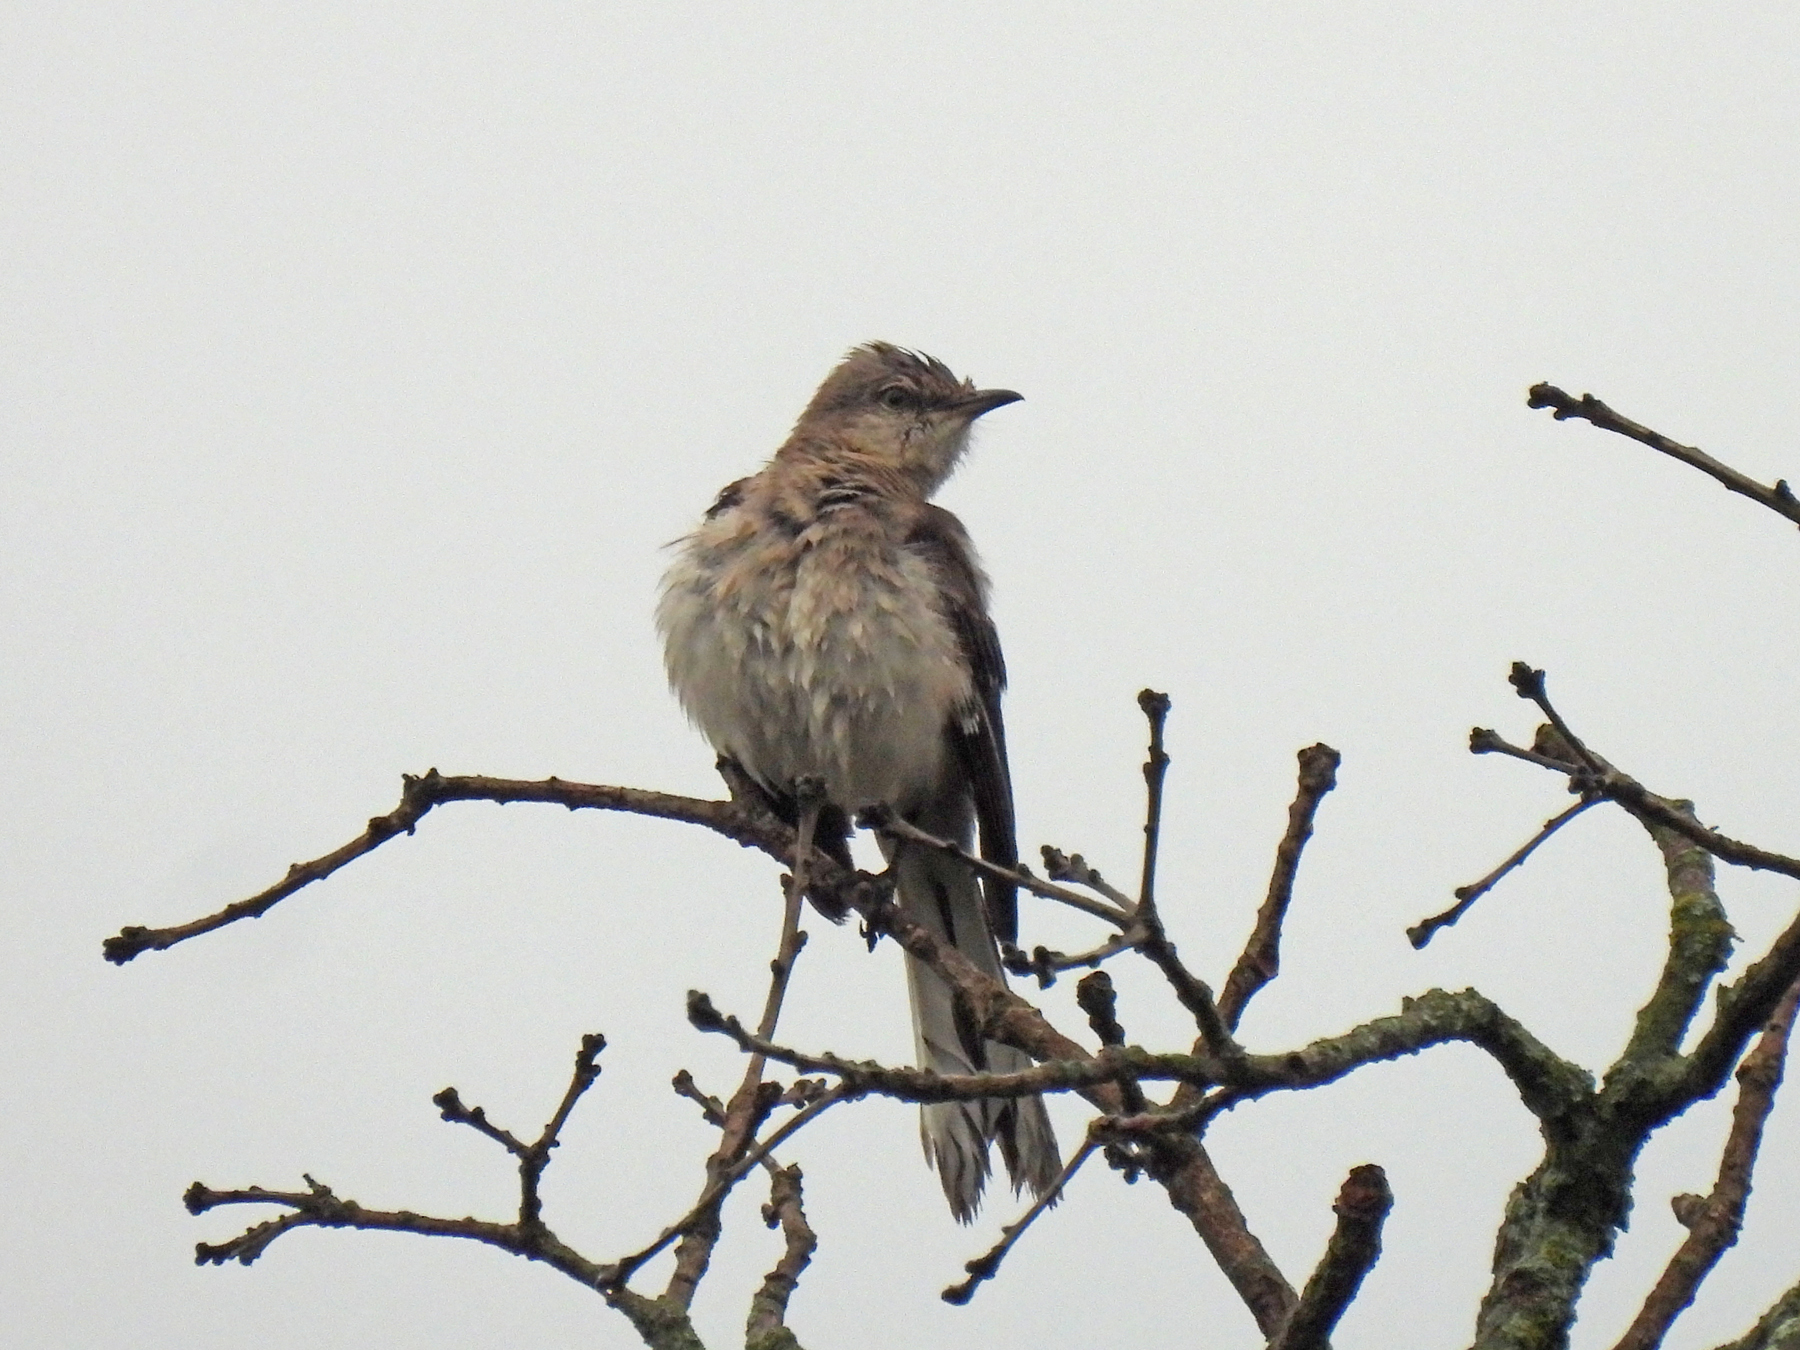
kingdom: Animalia
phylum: Chordata
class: Aves
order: Passeriformes
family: Mimidae
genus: Mimus
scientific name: Mimus polyglottos
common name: Northern mockingbird
